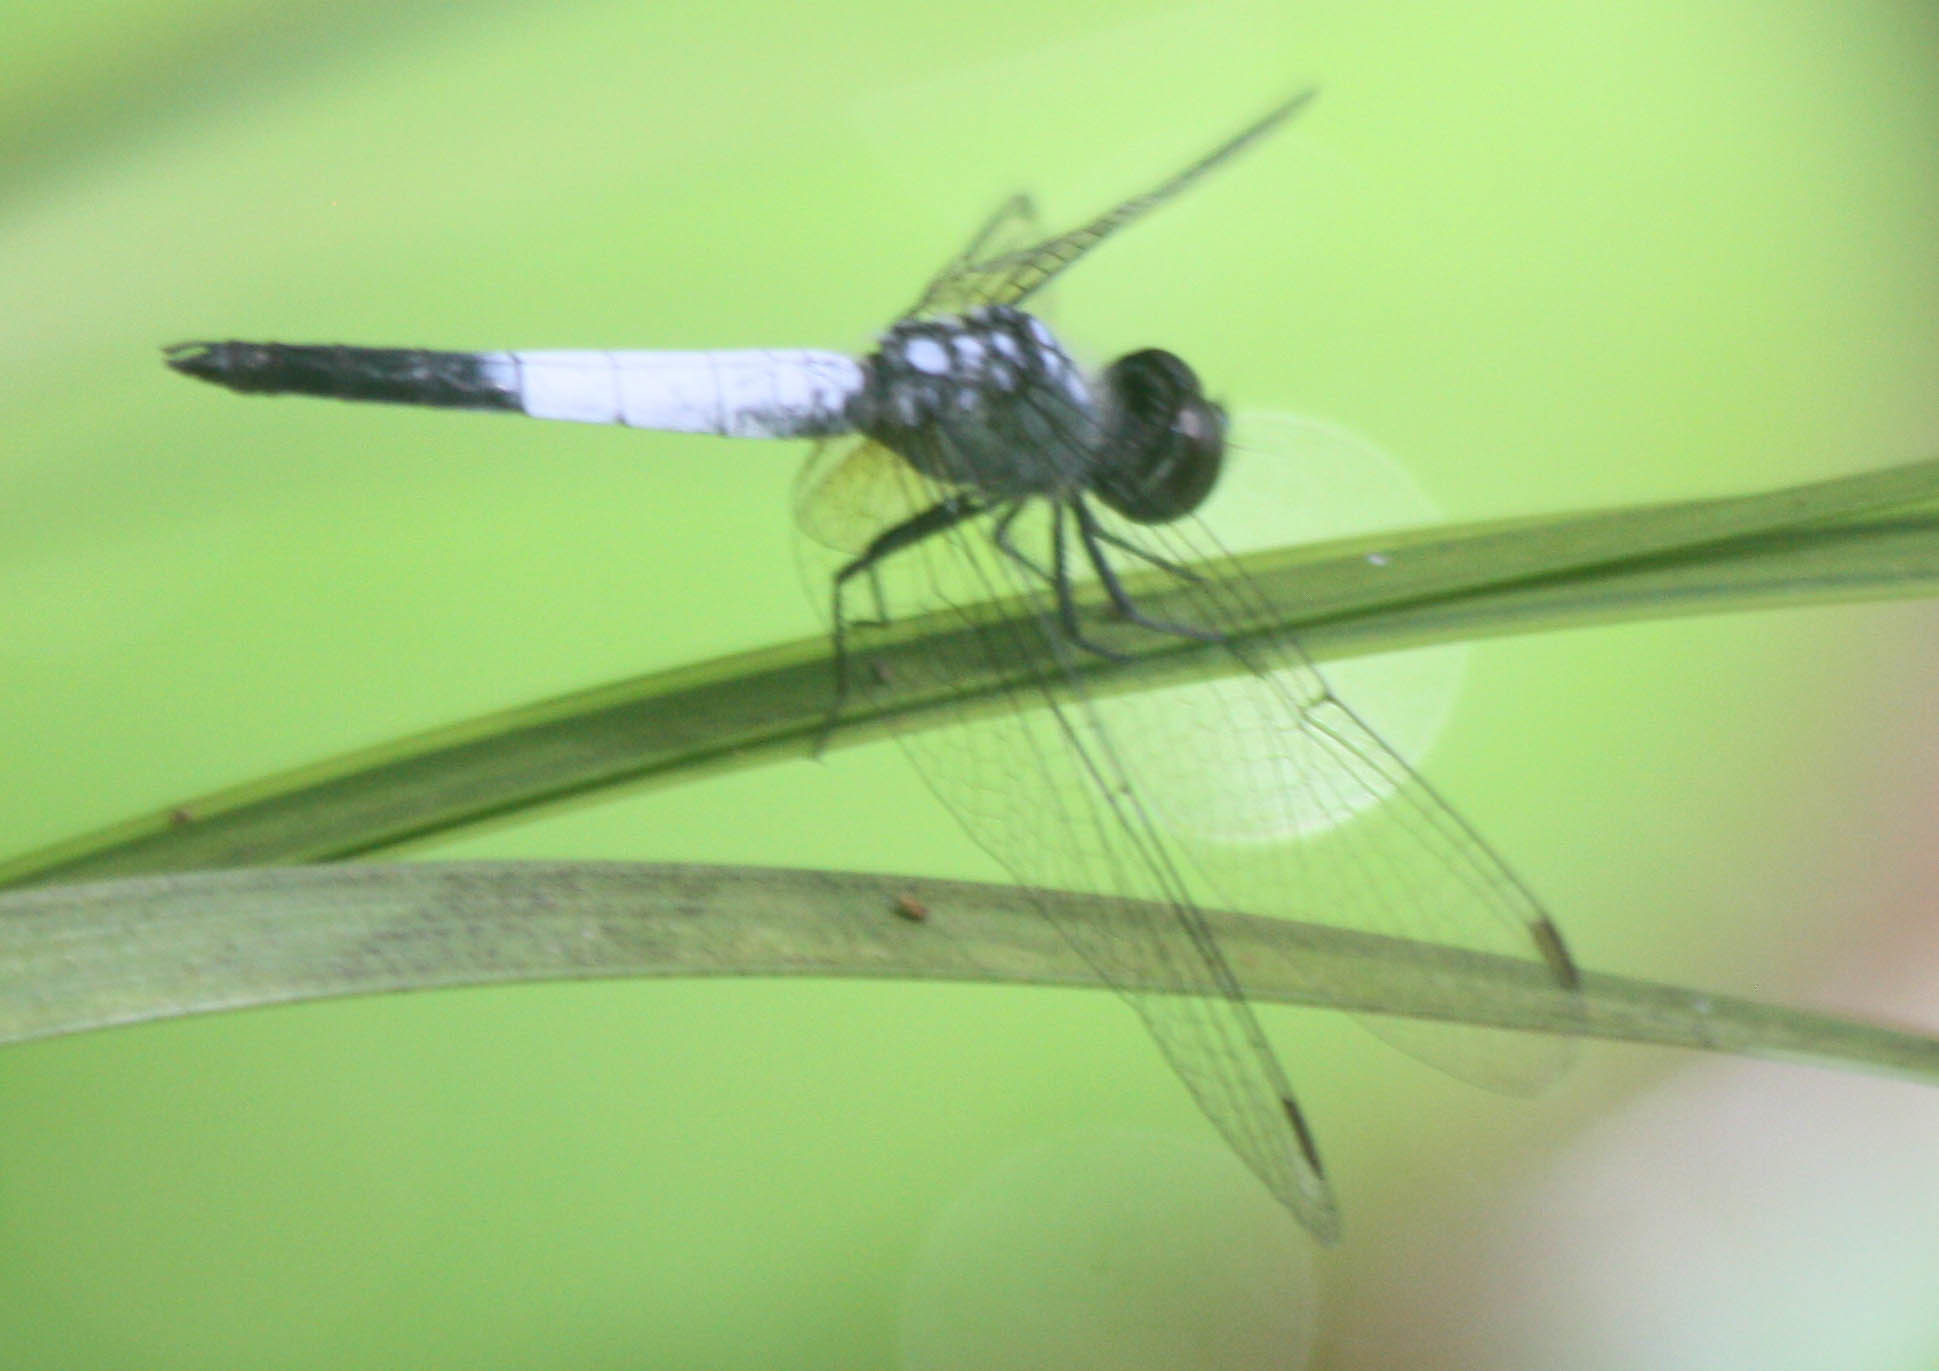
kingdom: Animalia
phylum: Arthropoda
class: Insecta
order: Odonata
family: Libellulidae
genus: Brachydiplax
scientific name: Brachydiplax farinosa
